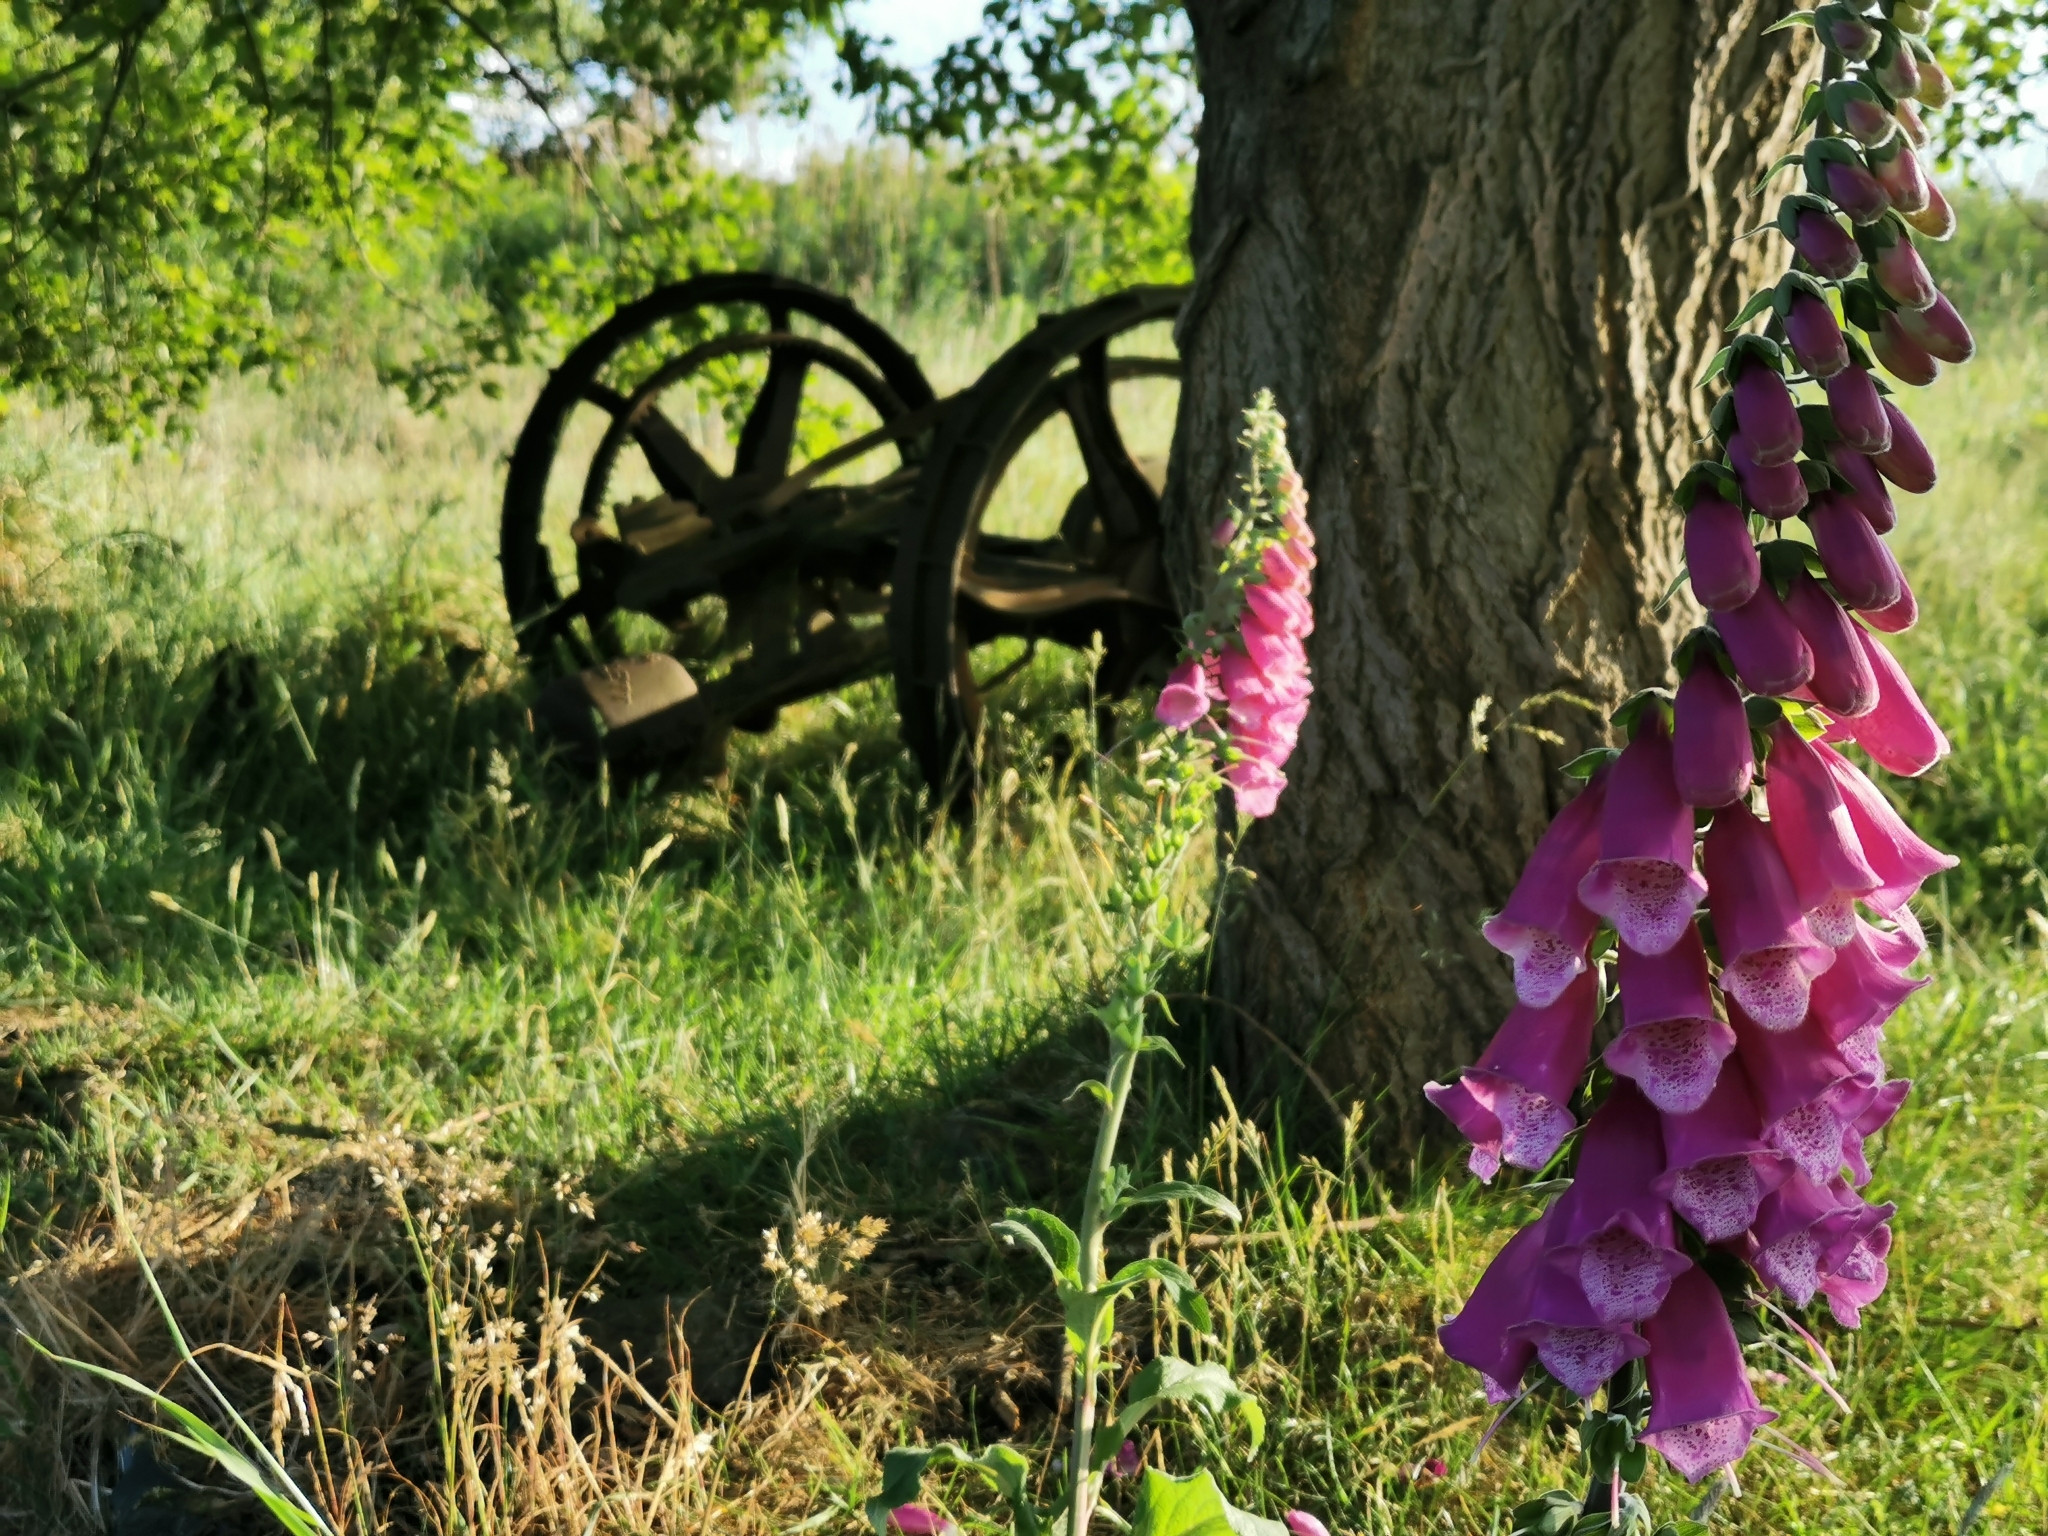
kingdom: Plantae
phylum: Tracheophyta
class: Magnoliopsida
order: Lamiales
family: Plantaginaceae
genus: Digitalis
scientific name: Digitalis purpurea
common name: Foxglove
